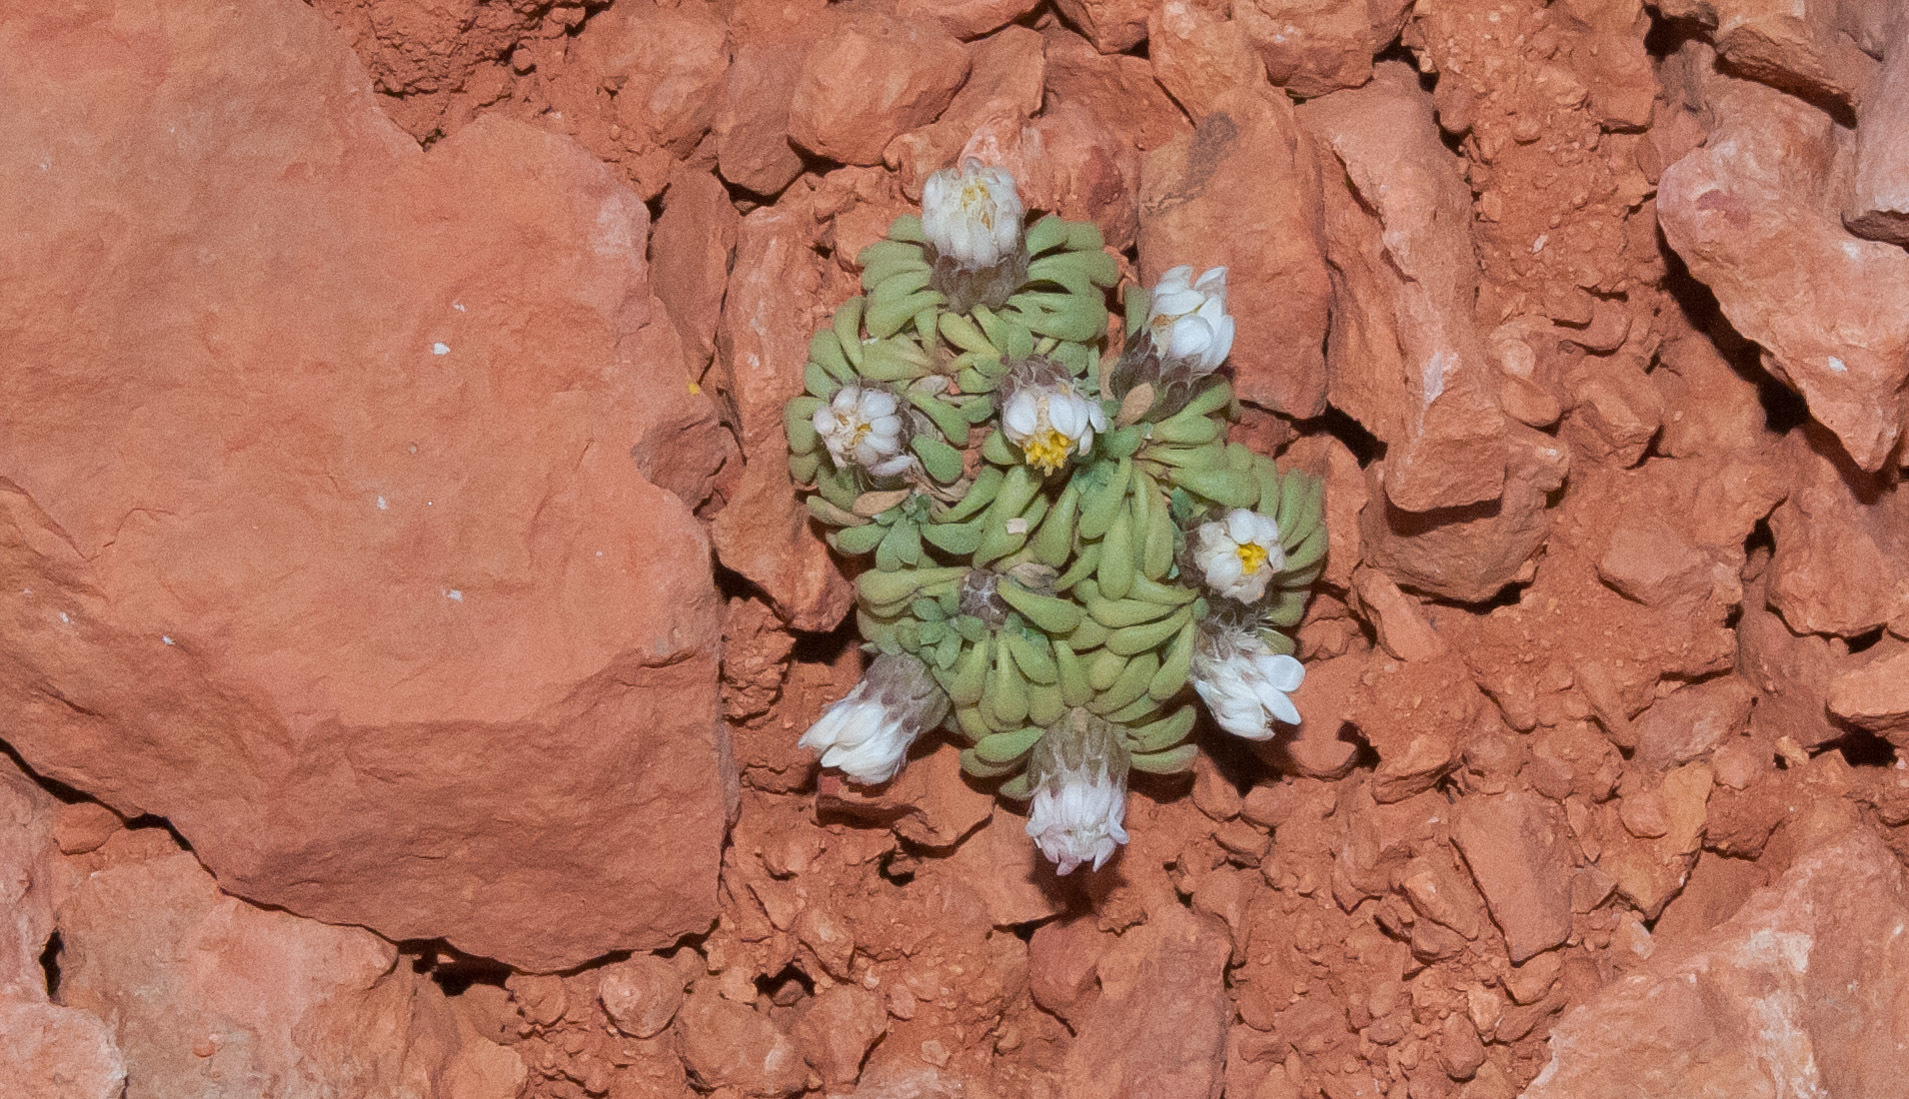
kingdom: Plantae
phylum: Tracheophyta
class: Magnoliopsida
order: Asterales
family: Asteraceae
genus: Townsendia
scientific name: Townsendia mimina
